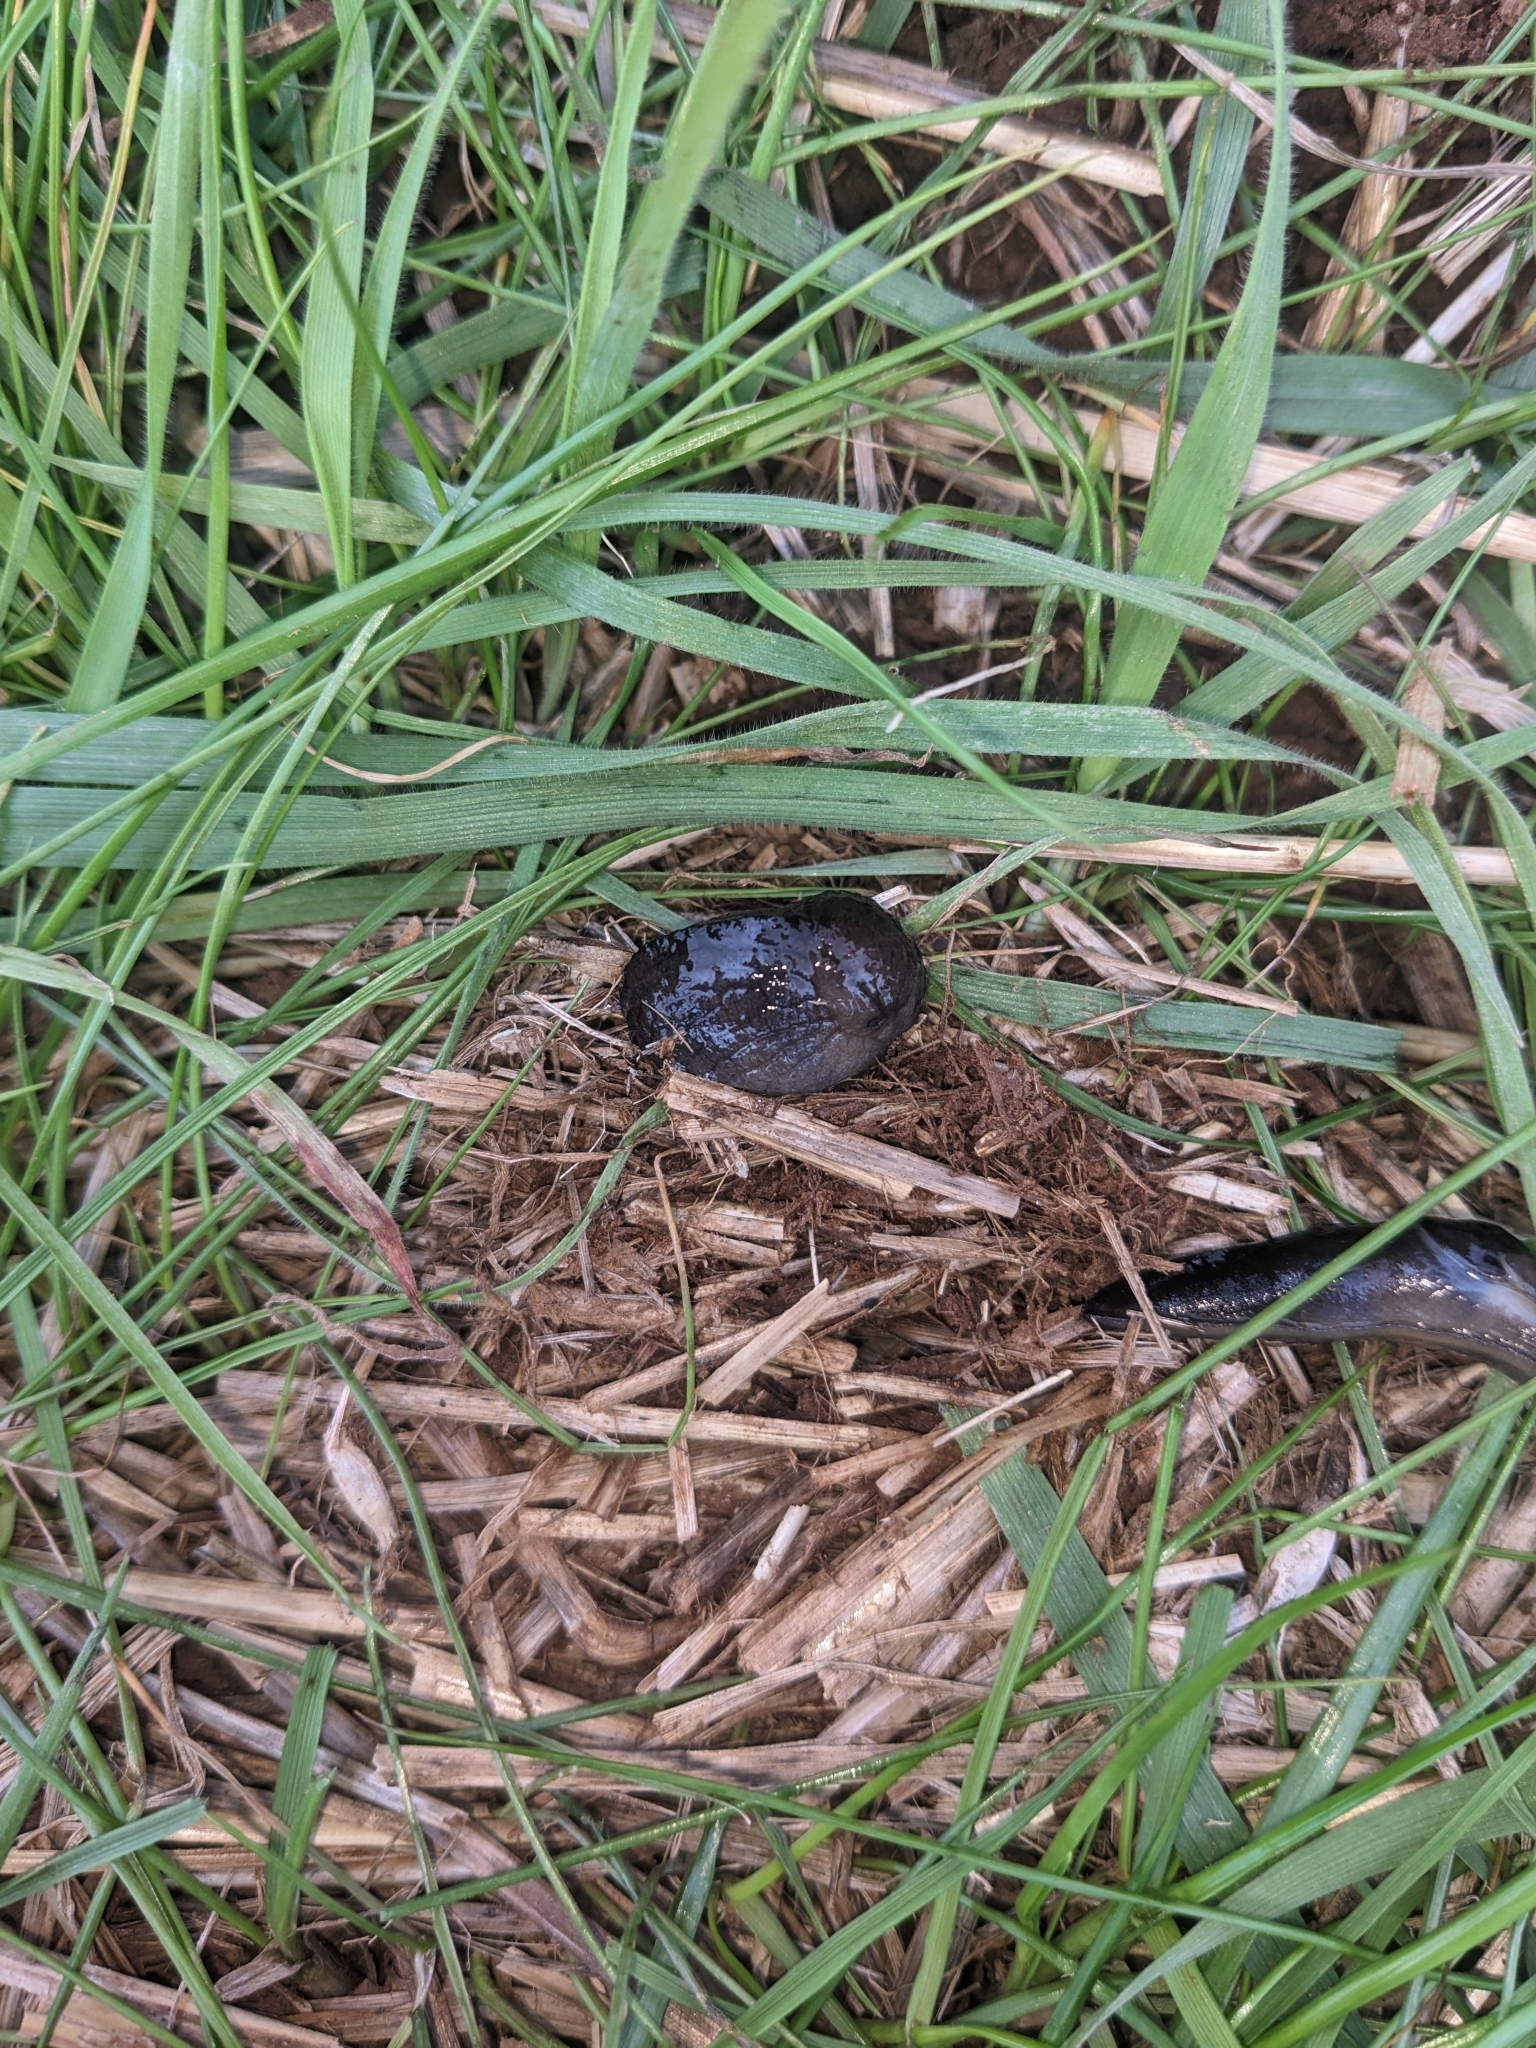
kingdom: Animalia
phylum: Mollusca
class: Gastropoda
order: Stylommatophora
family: Milacidae
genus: Milax
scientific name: Milax gagates
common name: Greenhouse slug
